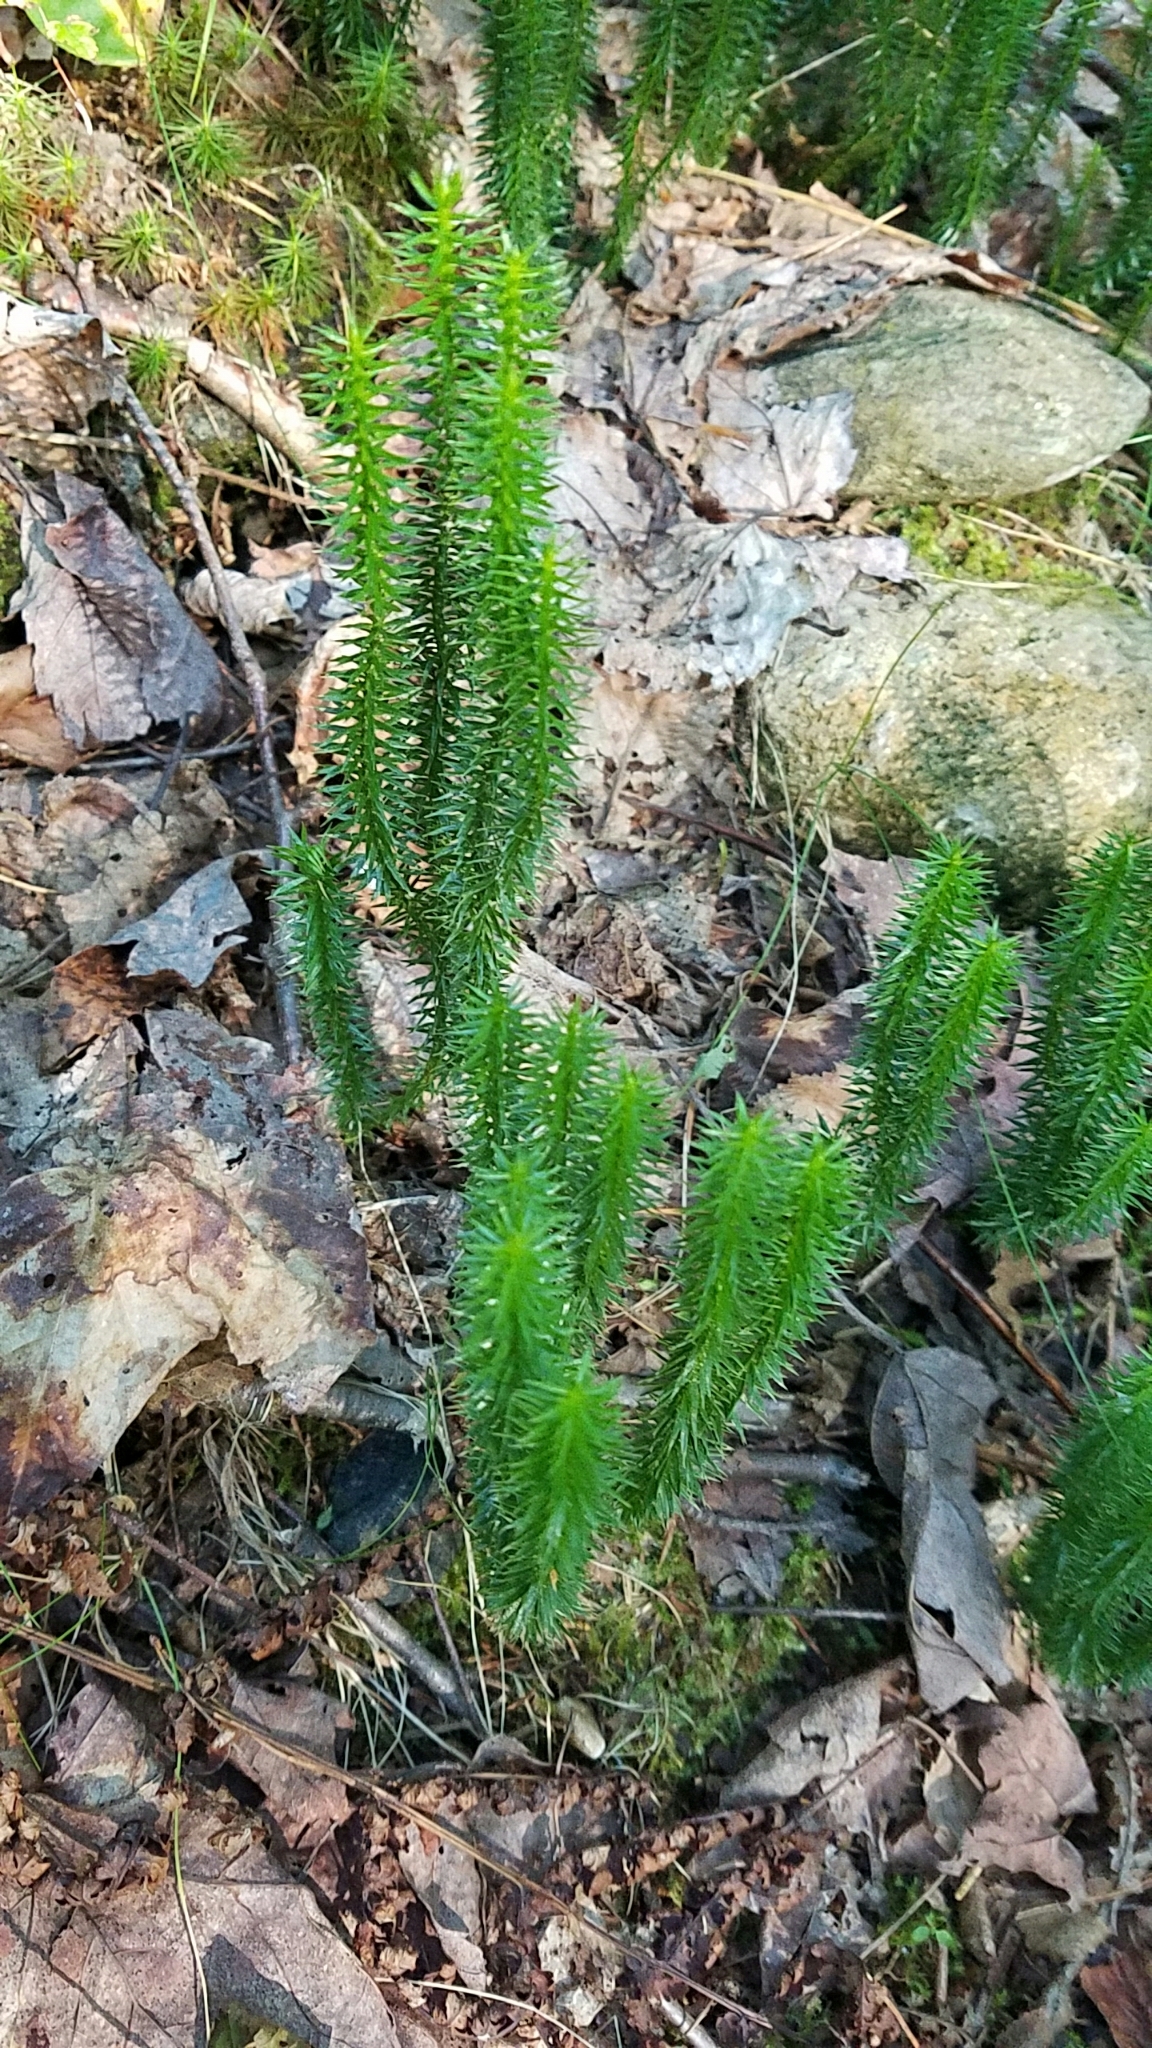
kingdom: Plantae
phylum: Tracheophyta
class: Lycopodiopsida
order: Lycopodiales
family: Lycopodiaceae
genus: Spinulum
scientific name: Spinulum annotinum
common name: Interrupted club-moss
